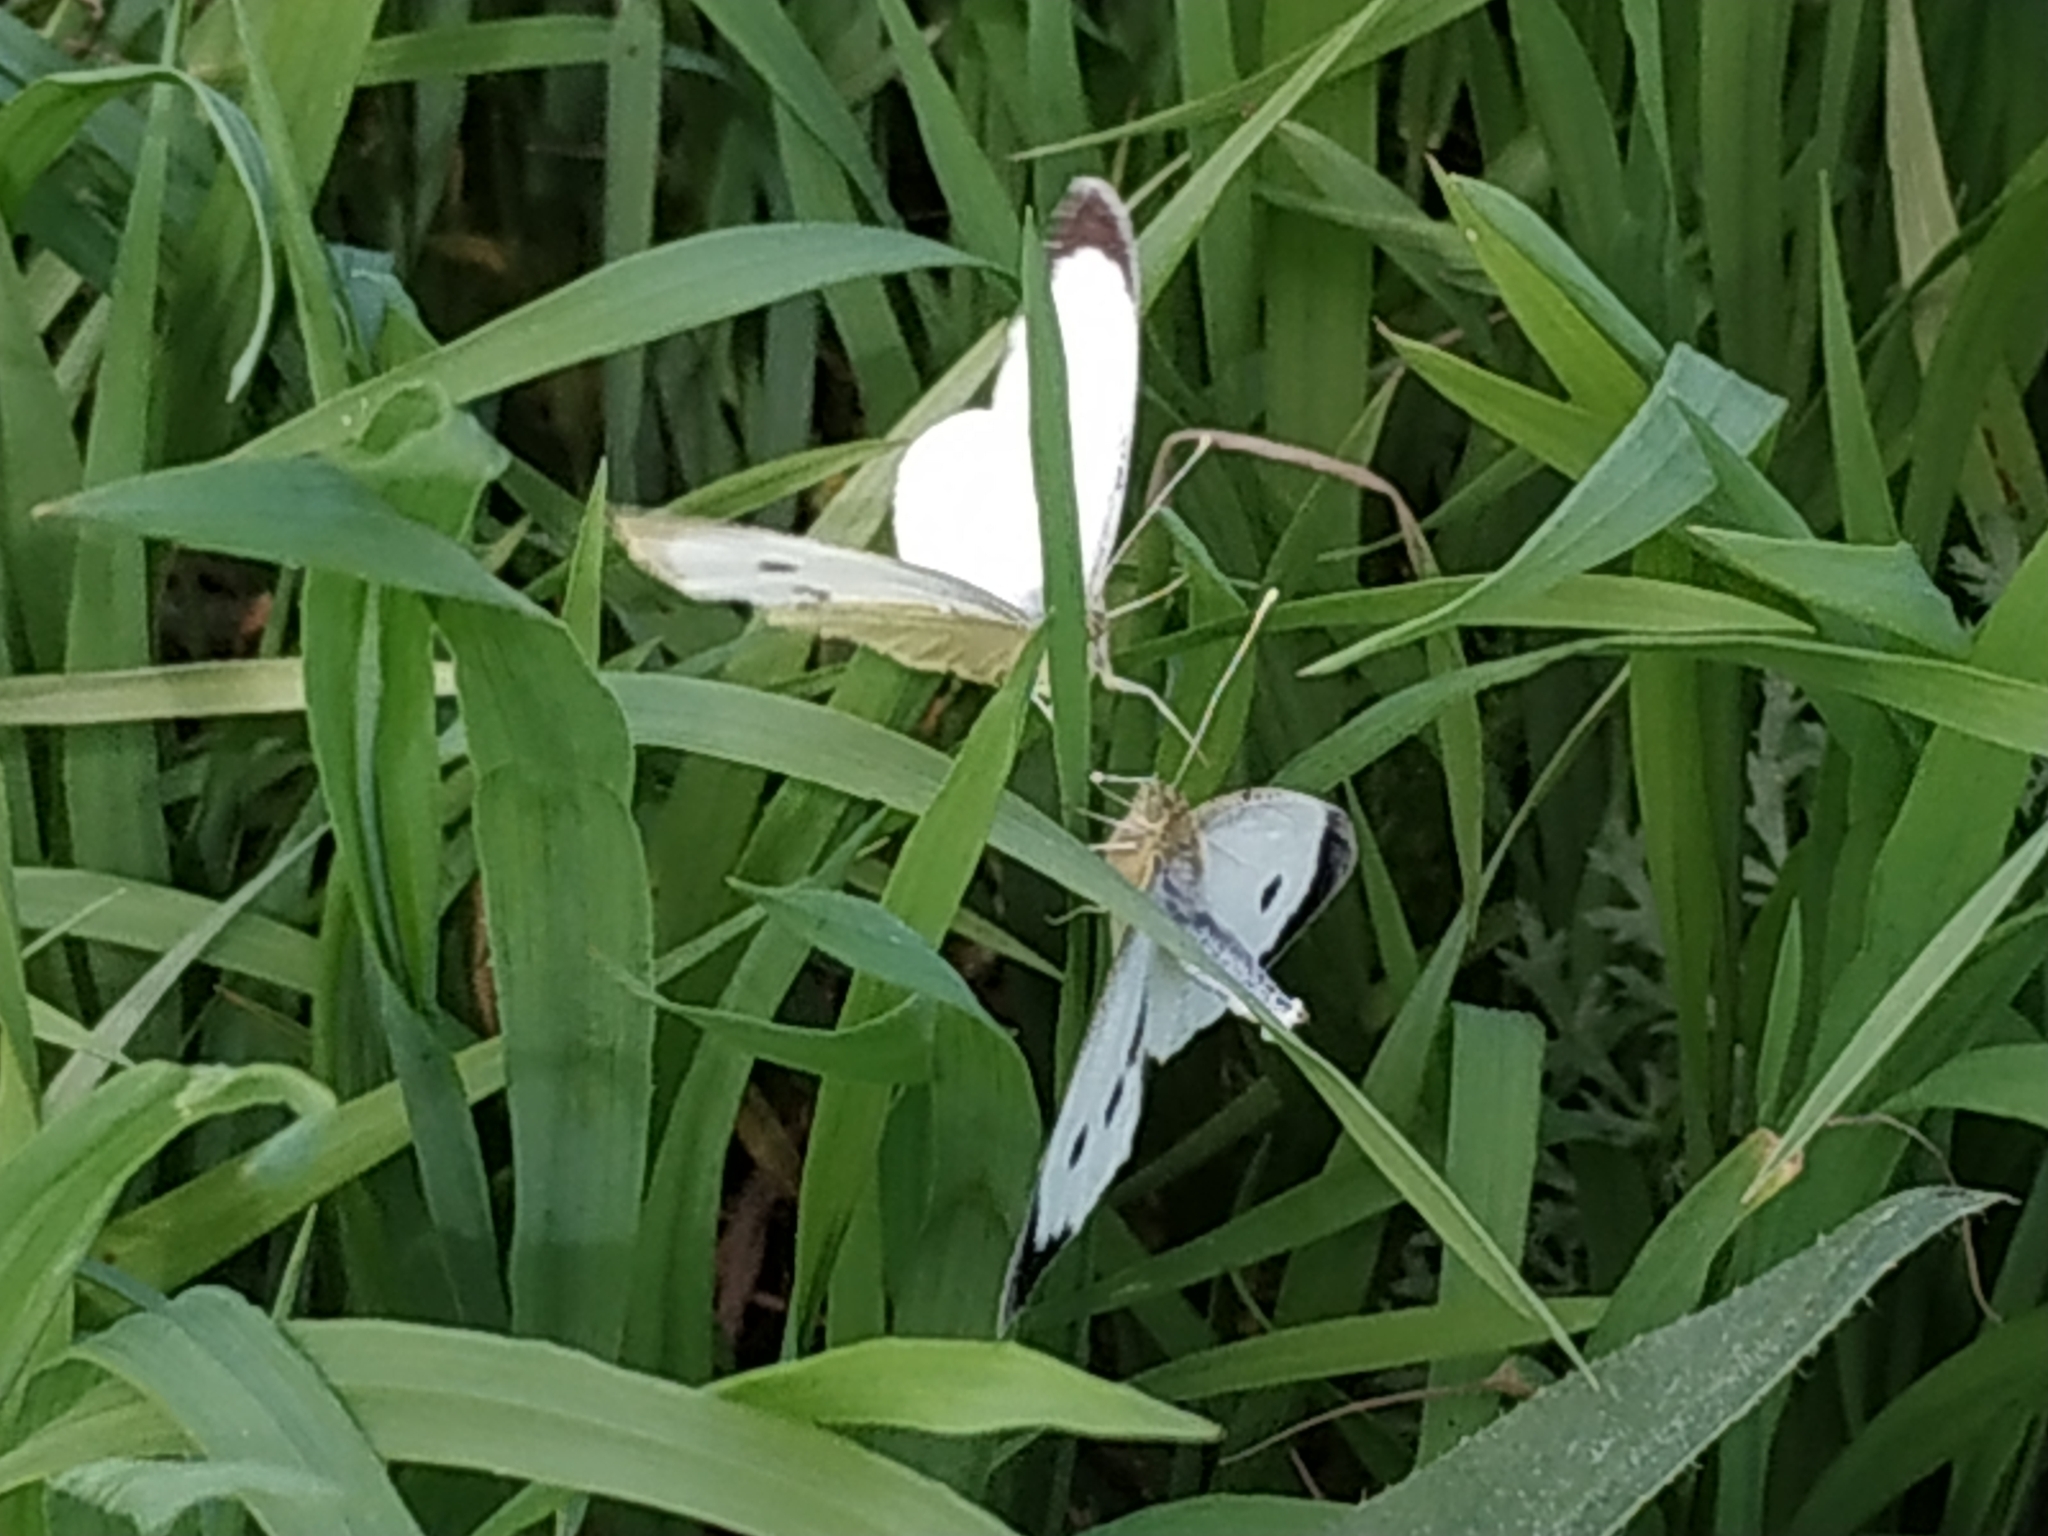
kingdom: Animalia
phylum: Arthropoda
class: Insecta
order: Lepidoptera
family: Pieridae
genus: Pieris
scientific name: Pieris brassicae
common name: Large white
